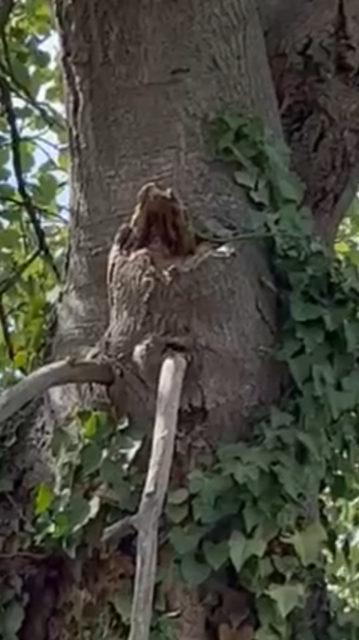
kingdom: Animalia
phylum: Arthropoda
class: Insecta
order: Hymenoptera
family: Vespidae
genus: Vespa
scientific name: Vespa crabro
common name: Hornet
